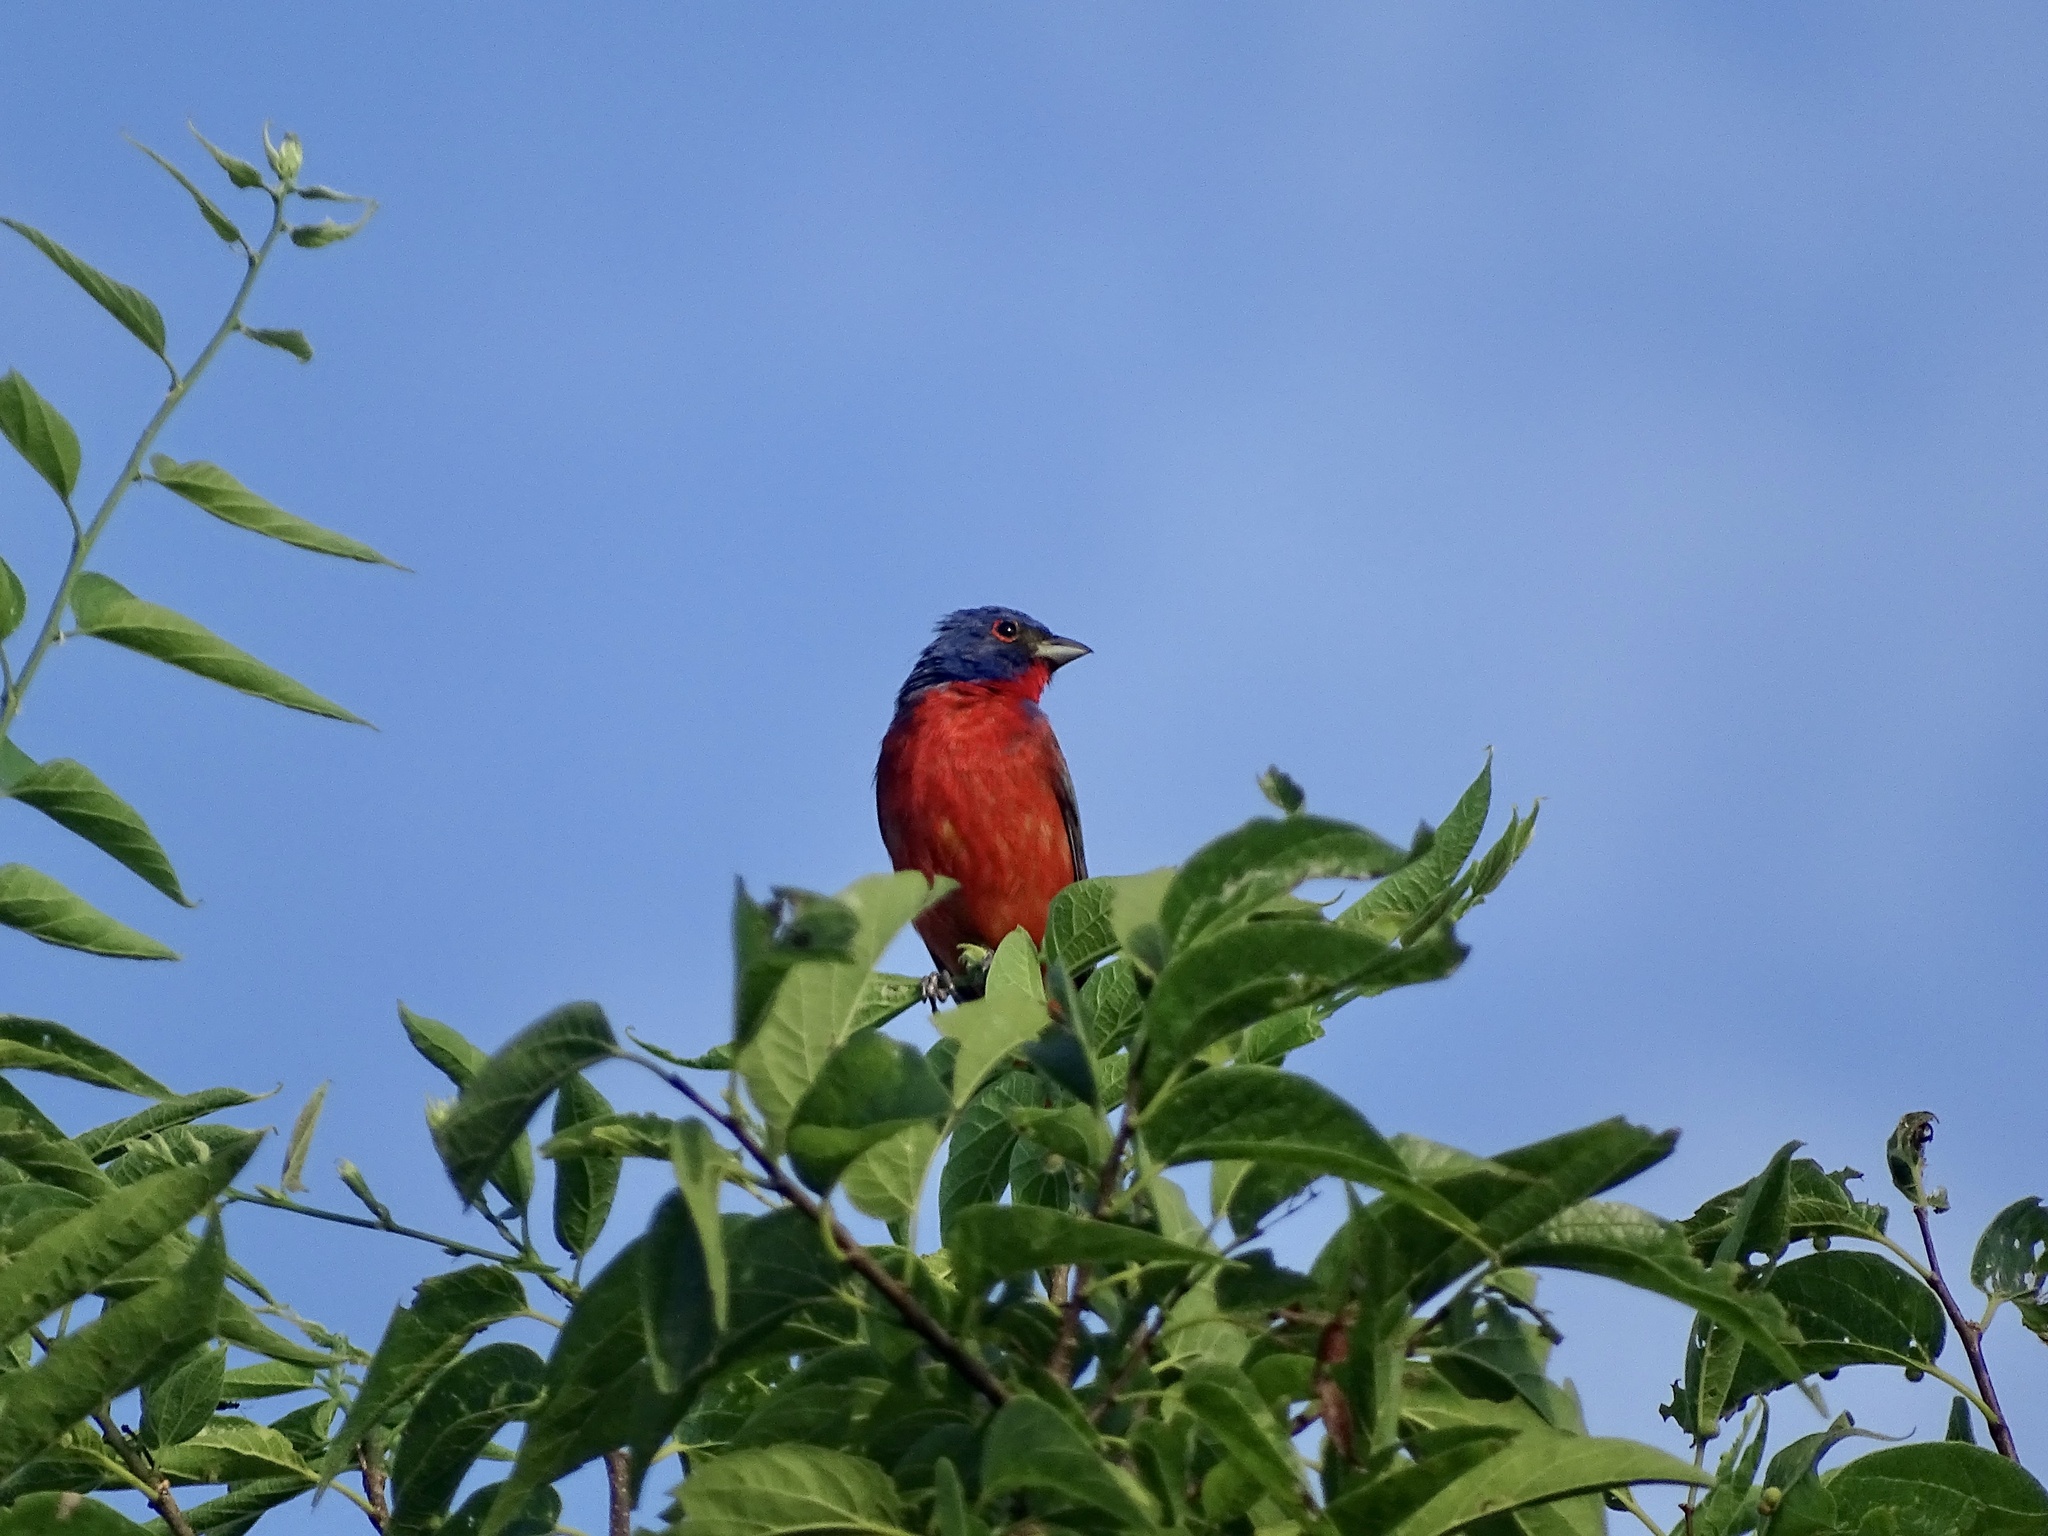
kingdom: Animalia
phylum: Chordata
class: Aves
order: Passeriformes
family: Cardinalidae
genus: Passerina
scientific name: Passerina ciris
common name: Painted bunting
